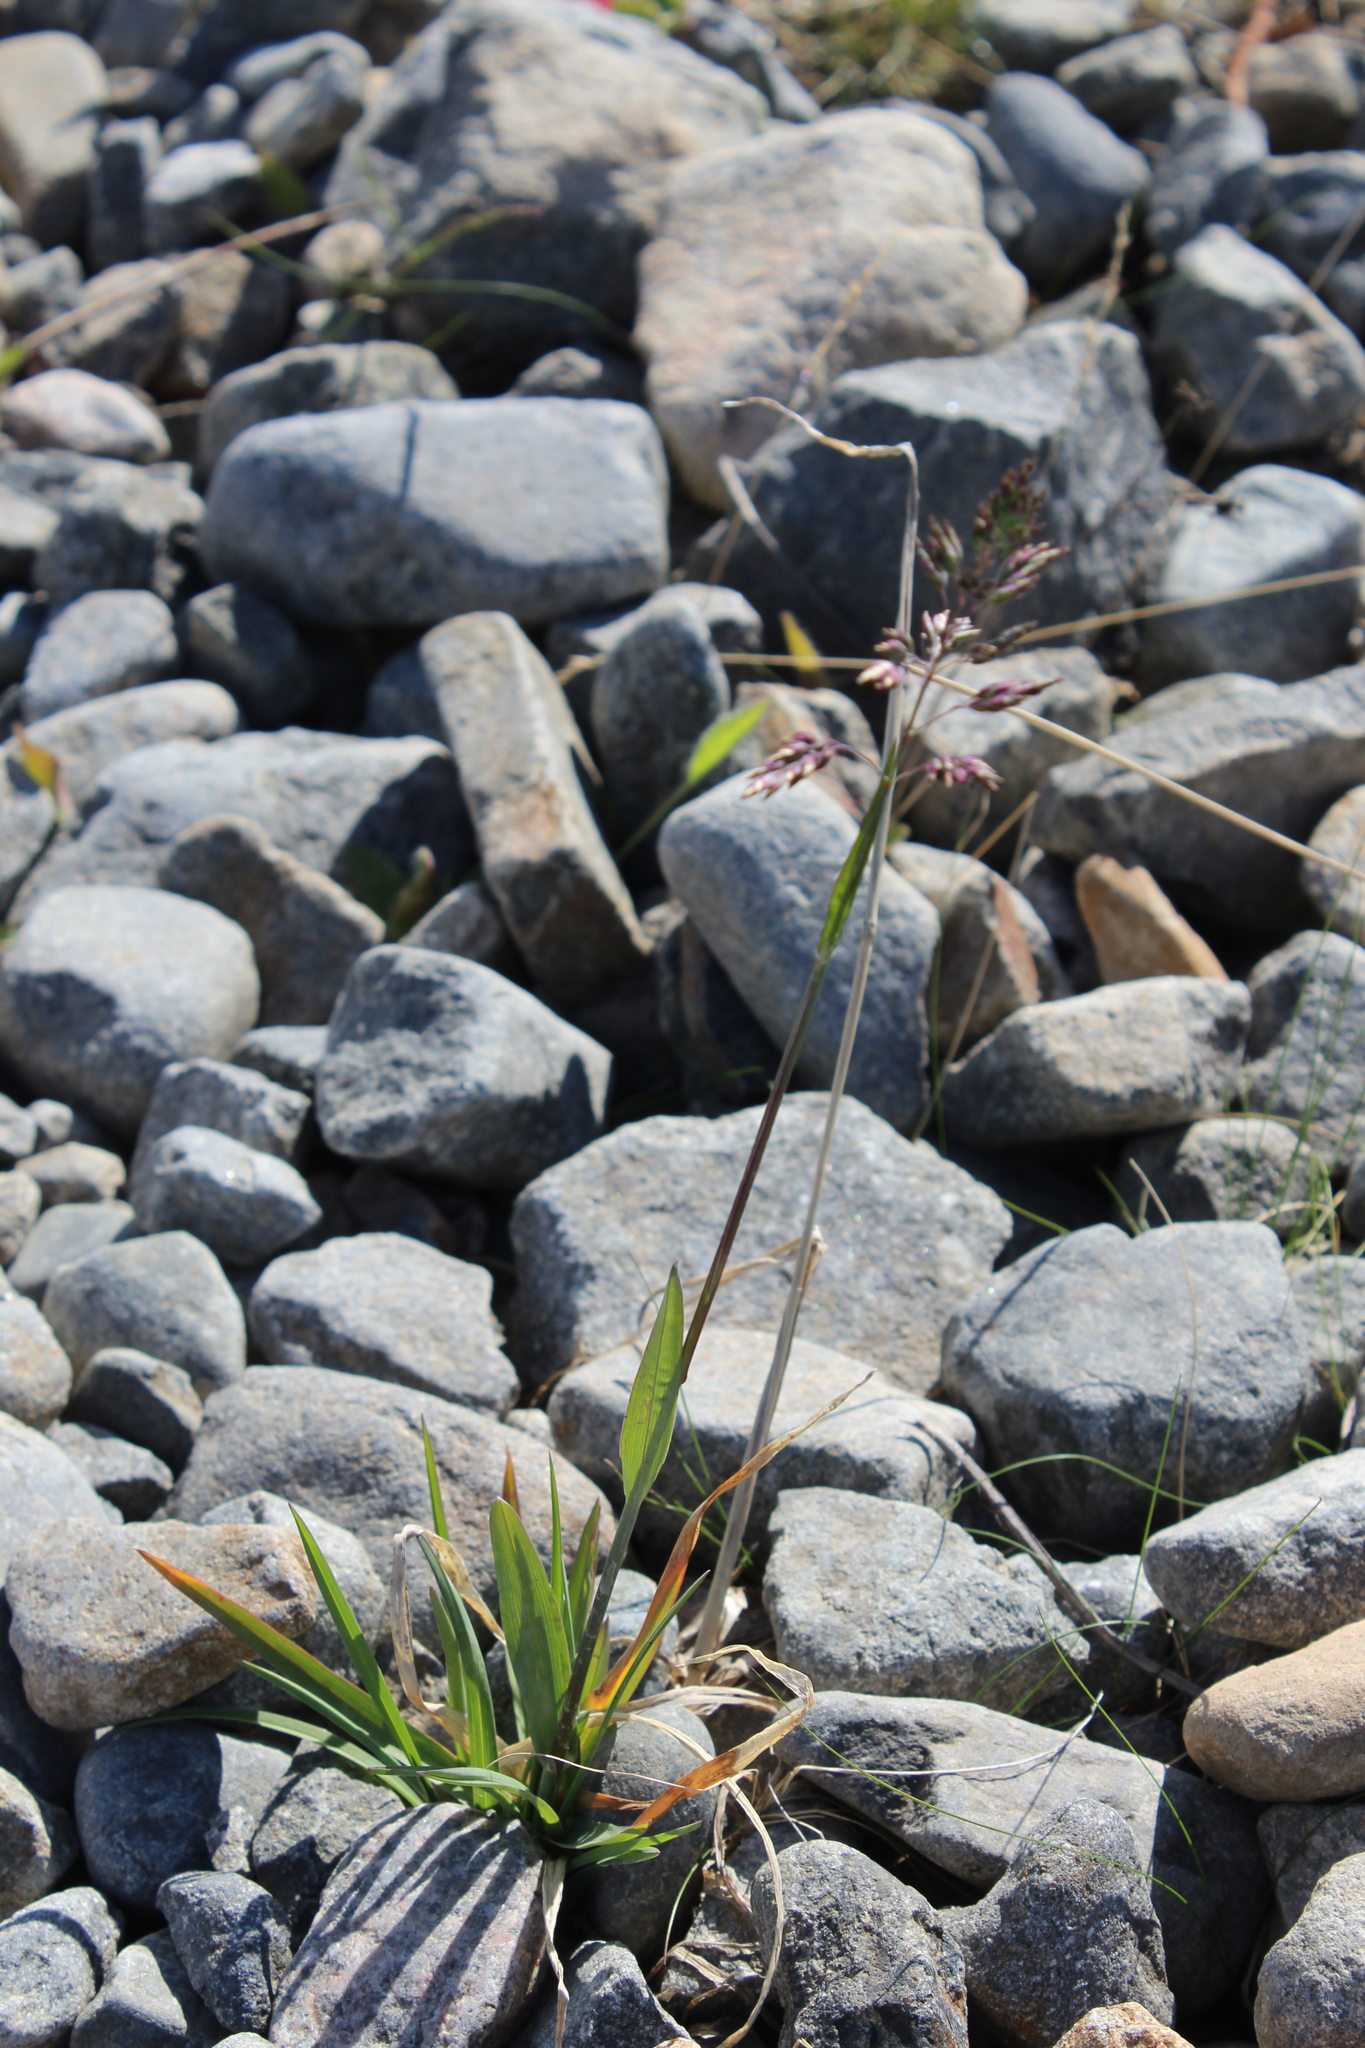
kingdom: Plantae
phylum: Tracheophyta
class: Liliopsida
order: Poales
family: Poaceae
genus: Poa
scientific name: Poa alpina
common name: Alpine bluegrass
